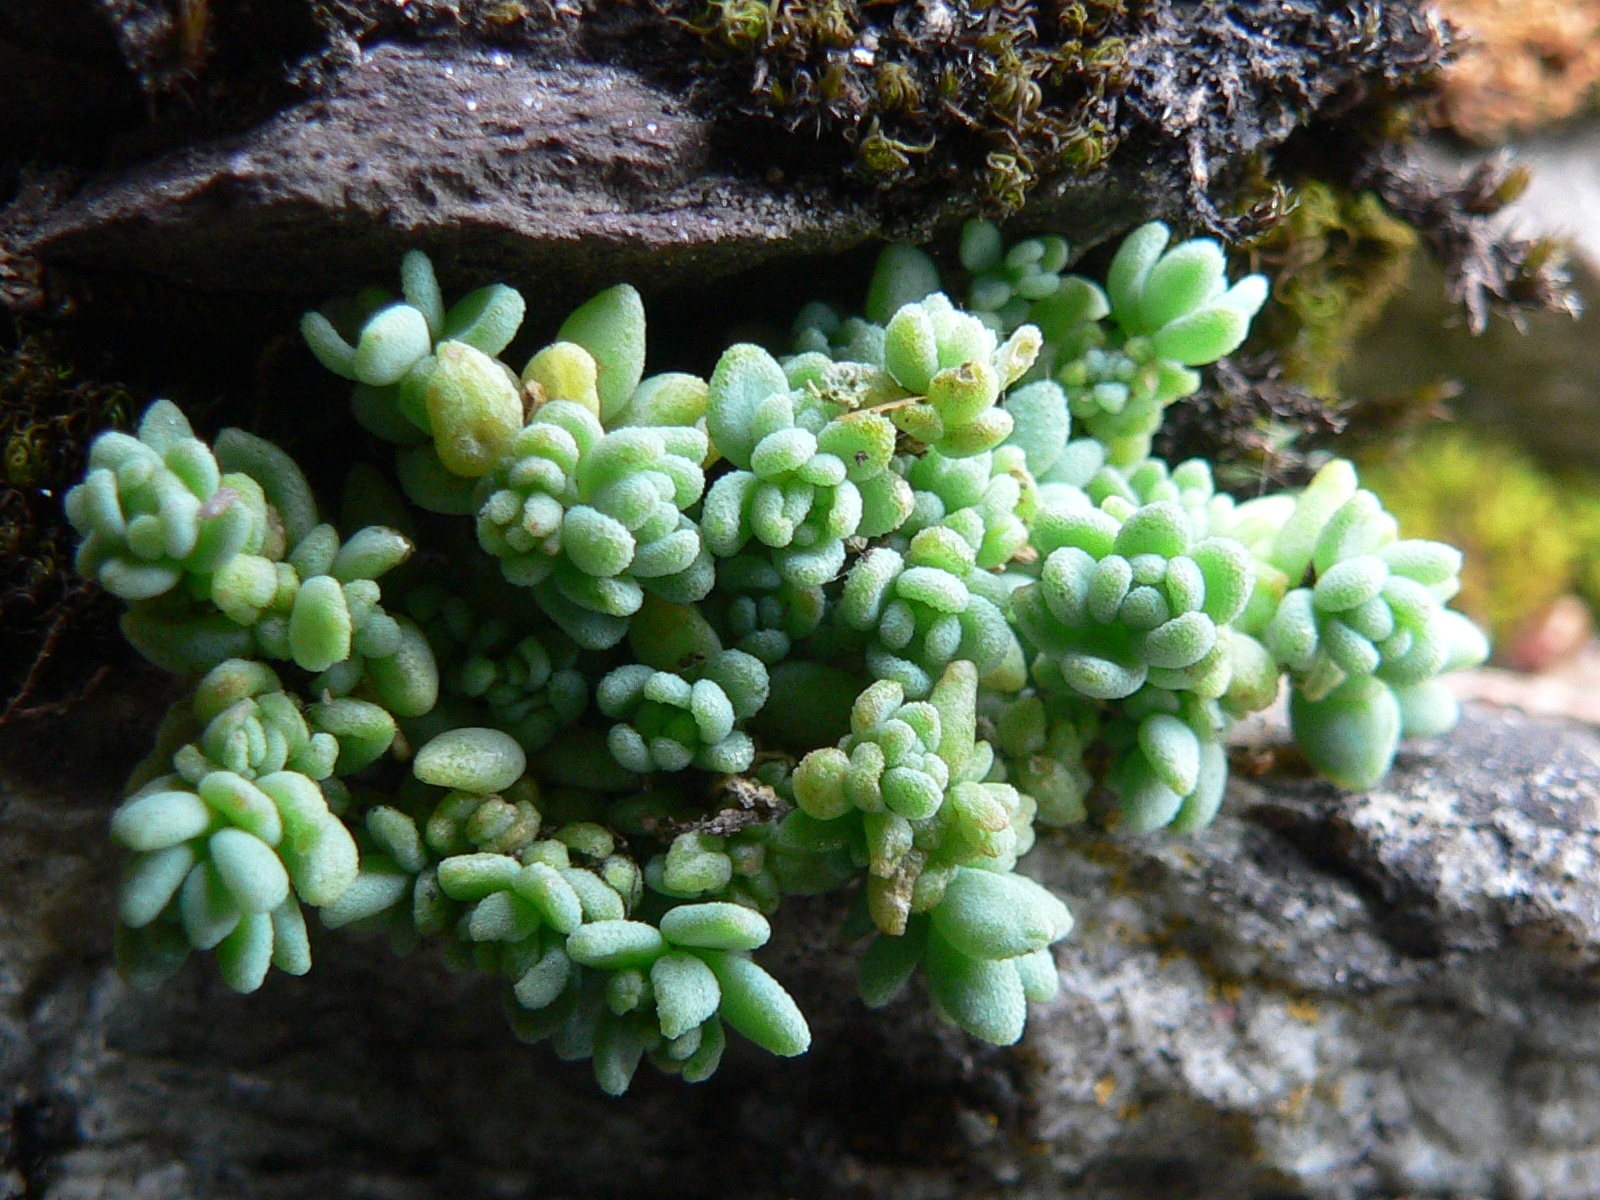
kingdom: Plantae
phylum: Tracheophyta
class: Magnoliopsida
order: Saxifragales
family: Crassulaceae
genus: Sedum
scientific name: Sedum dasyphyllum
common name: Thick-leaf stonecrop
